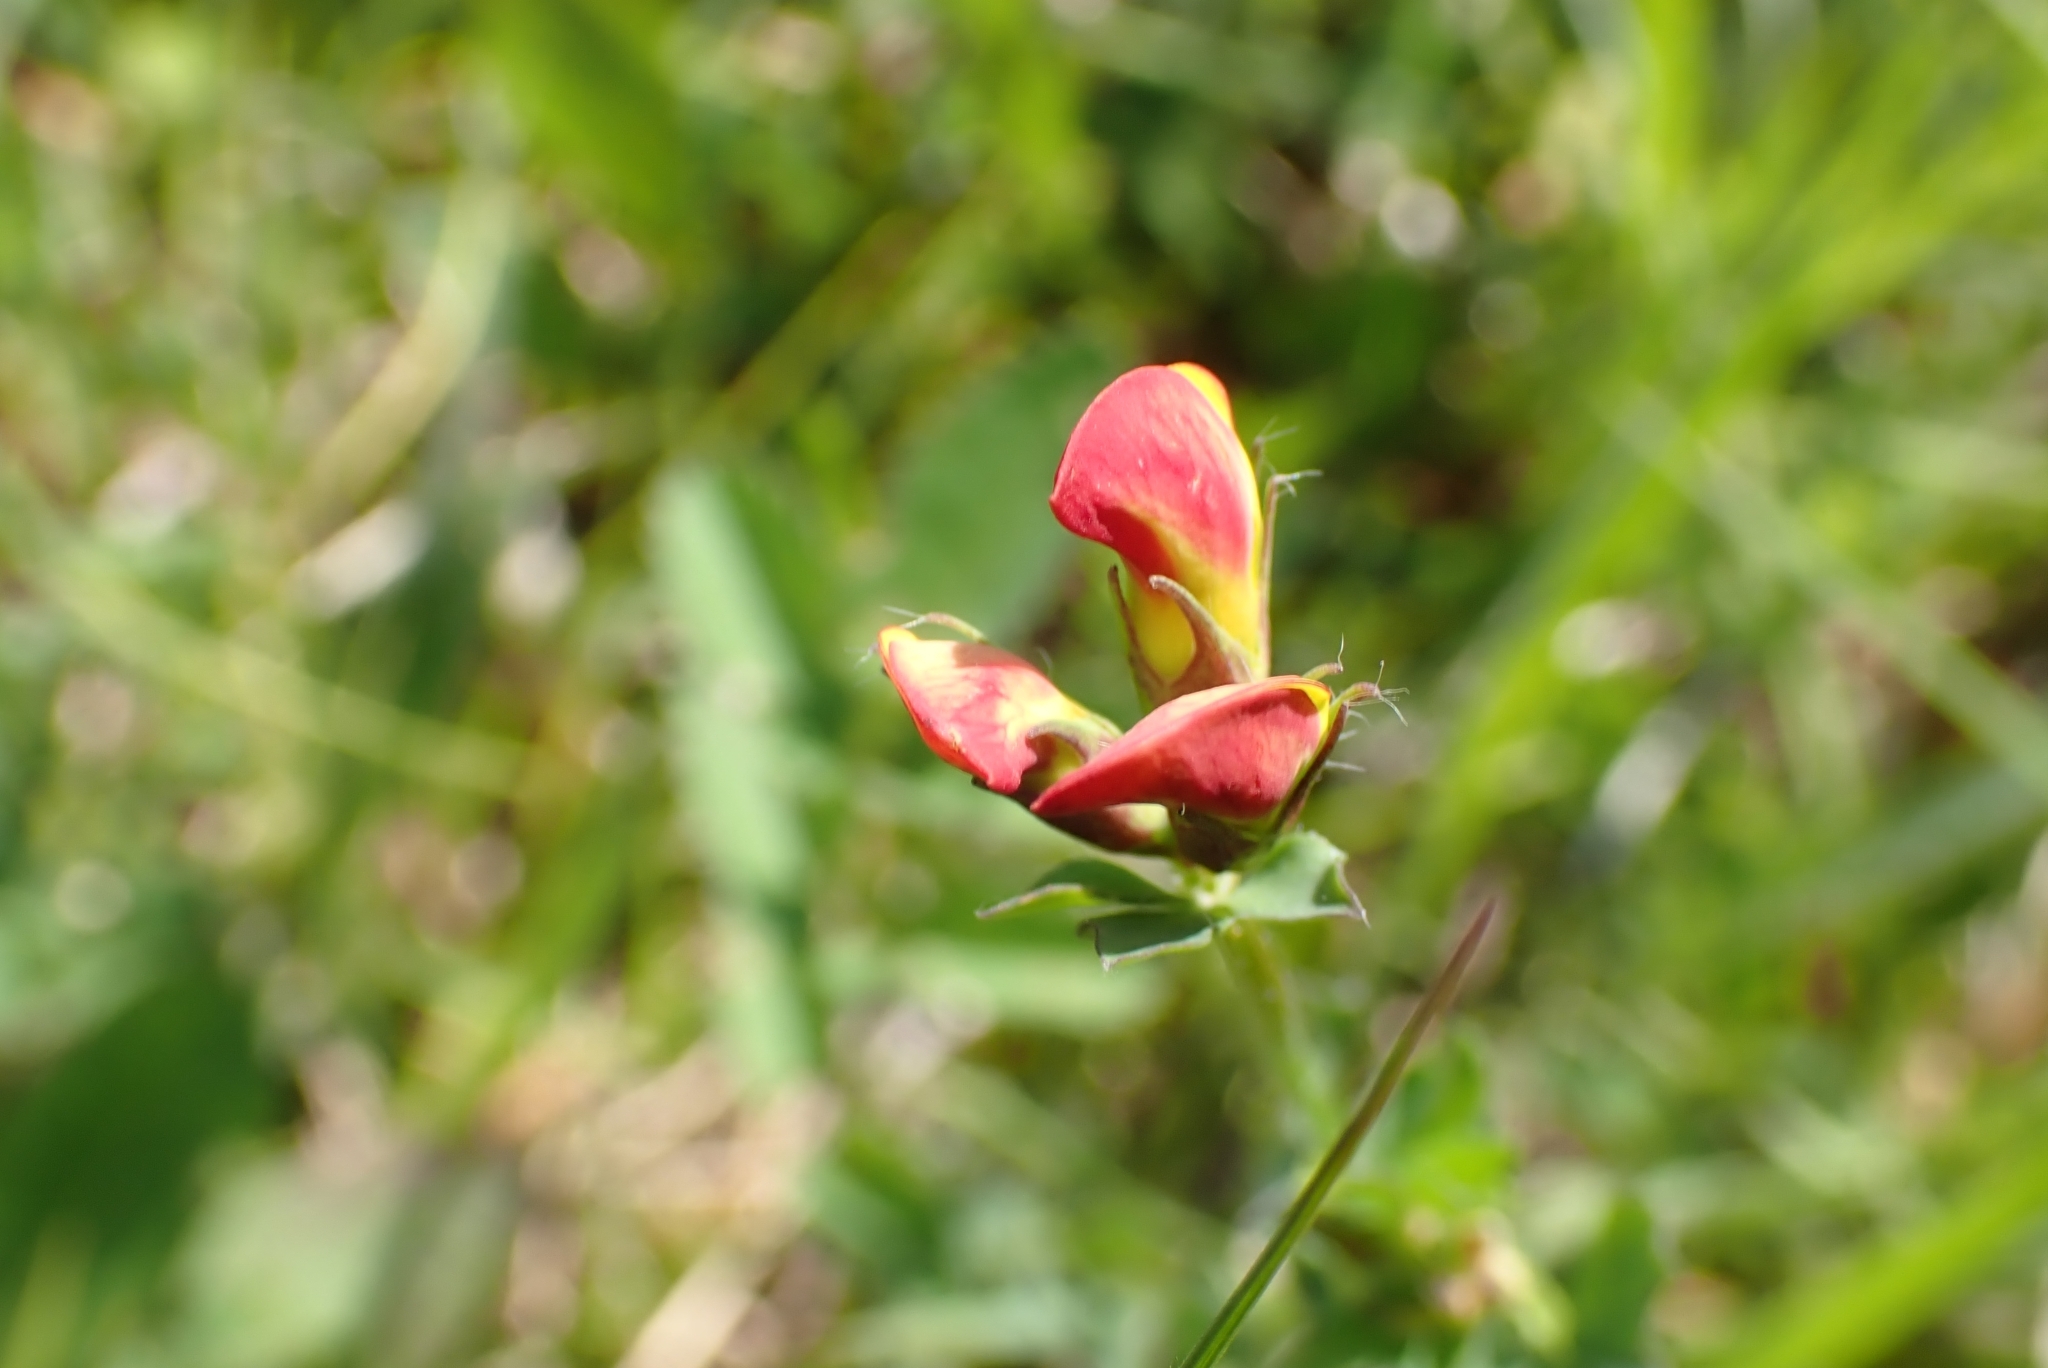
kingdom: Plantae
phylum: Tracheophyta
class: Magnoliopsida
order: Fabales
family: Fabaceae
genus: Lotus
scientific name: Lotus corniculatus
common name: Common bird's-foot-trefoil
